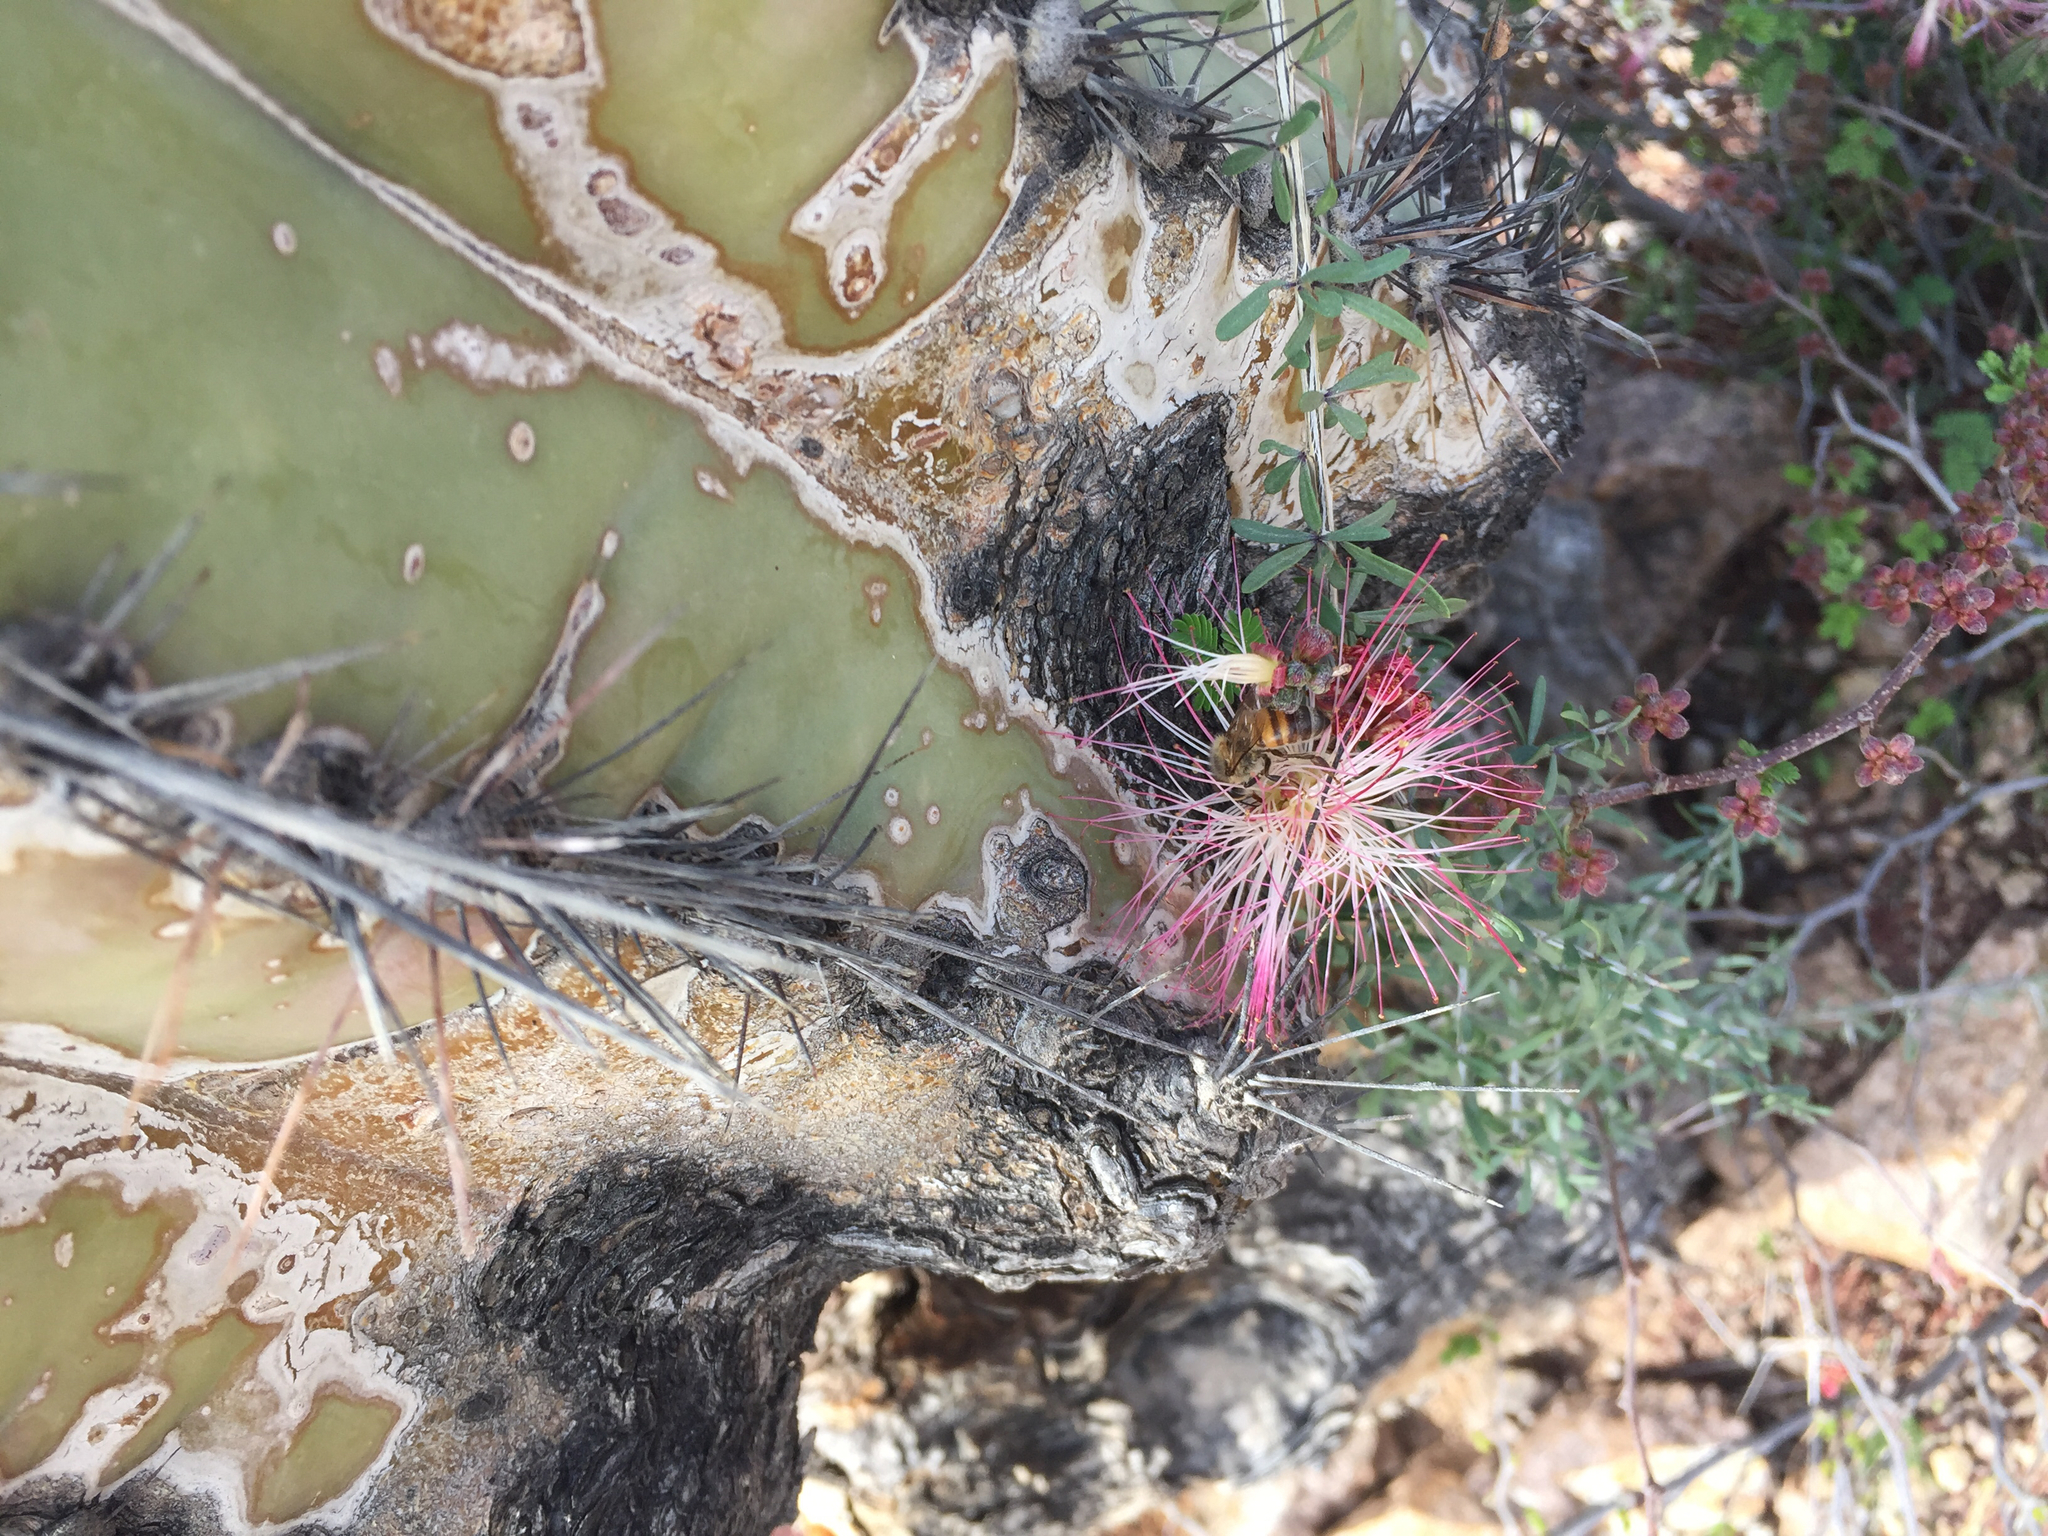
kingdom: Plantae
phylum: Tracheophyta
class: Magnoliopsida
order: Fabales
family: Fabaceae
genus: Calliandra
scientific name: Calliandra eriophylla
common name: Fairy-duster
